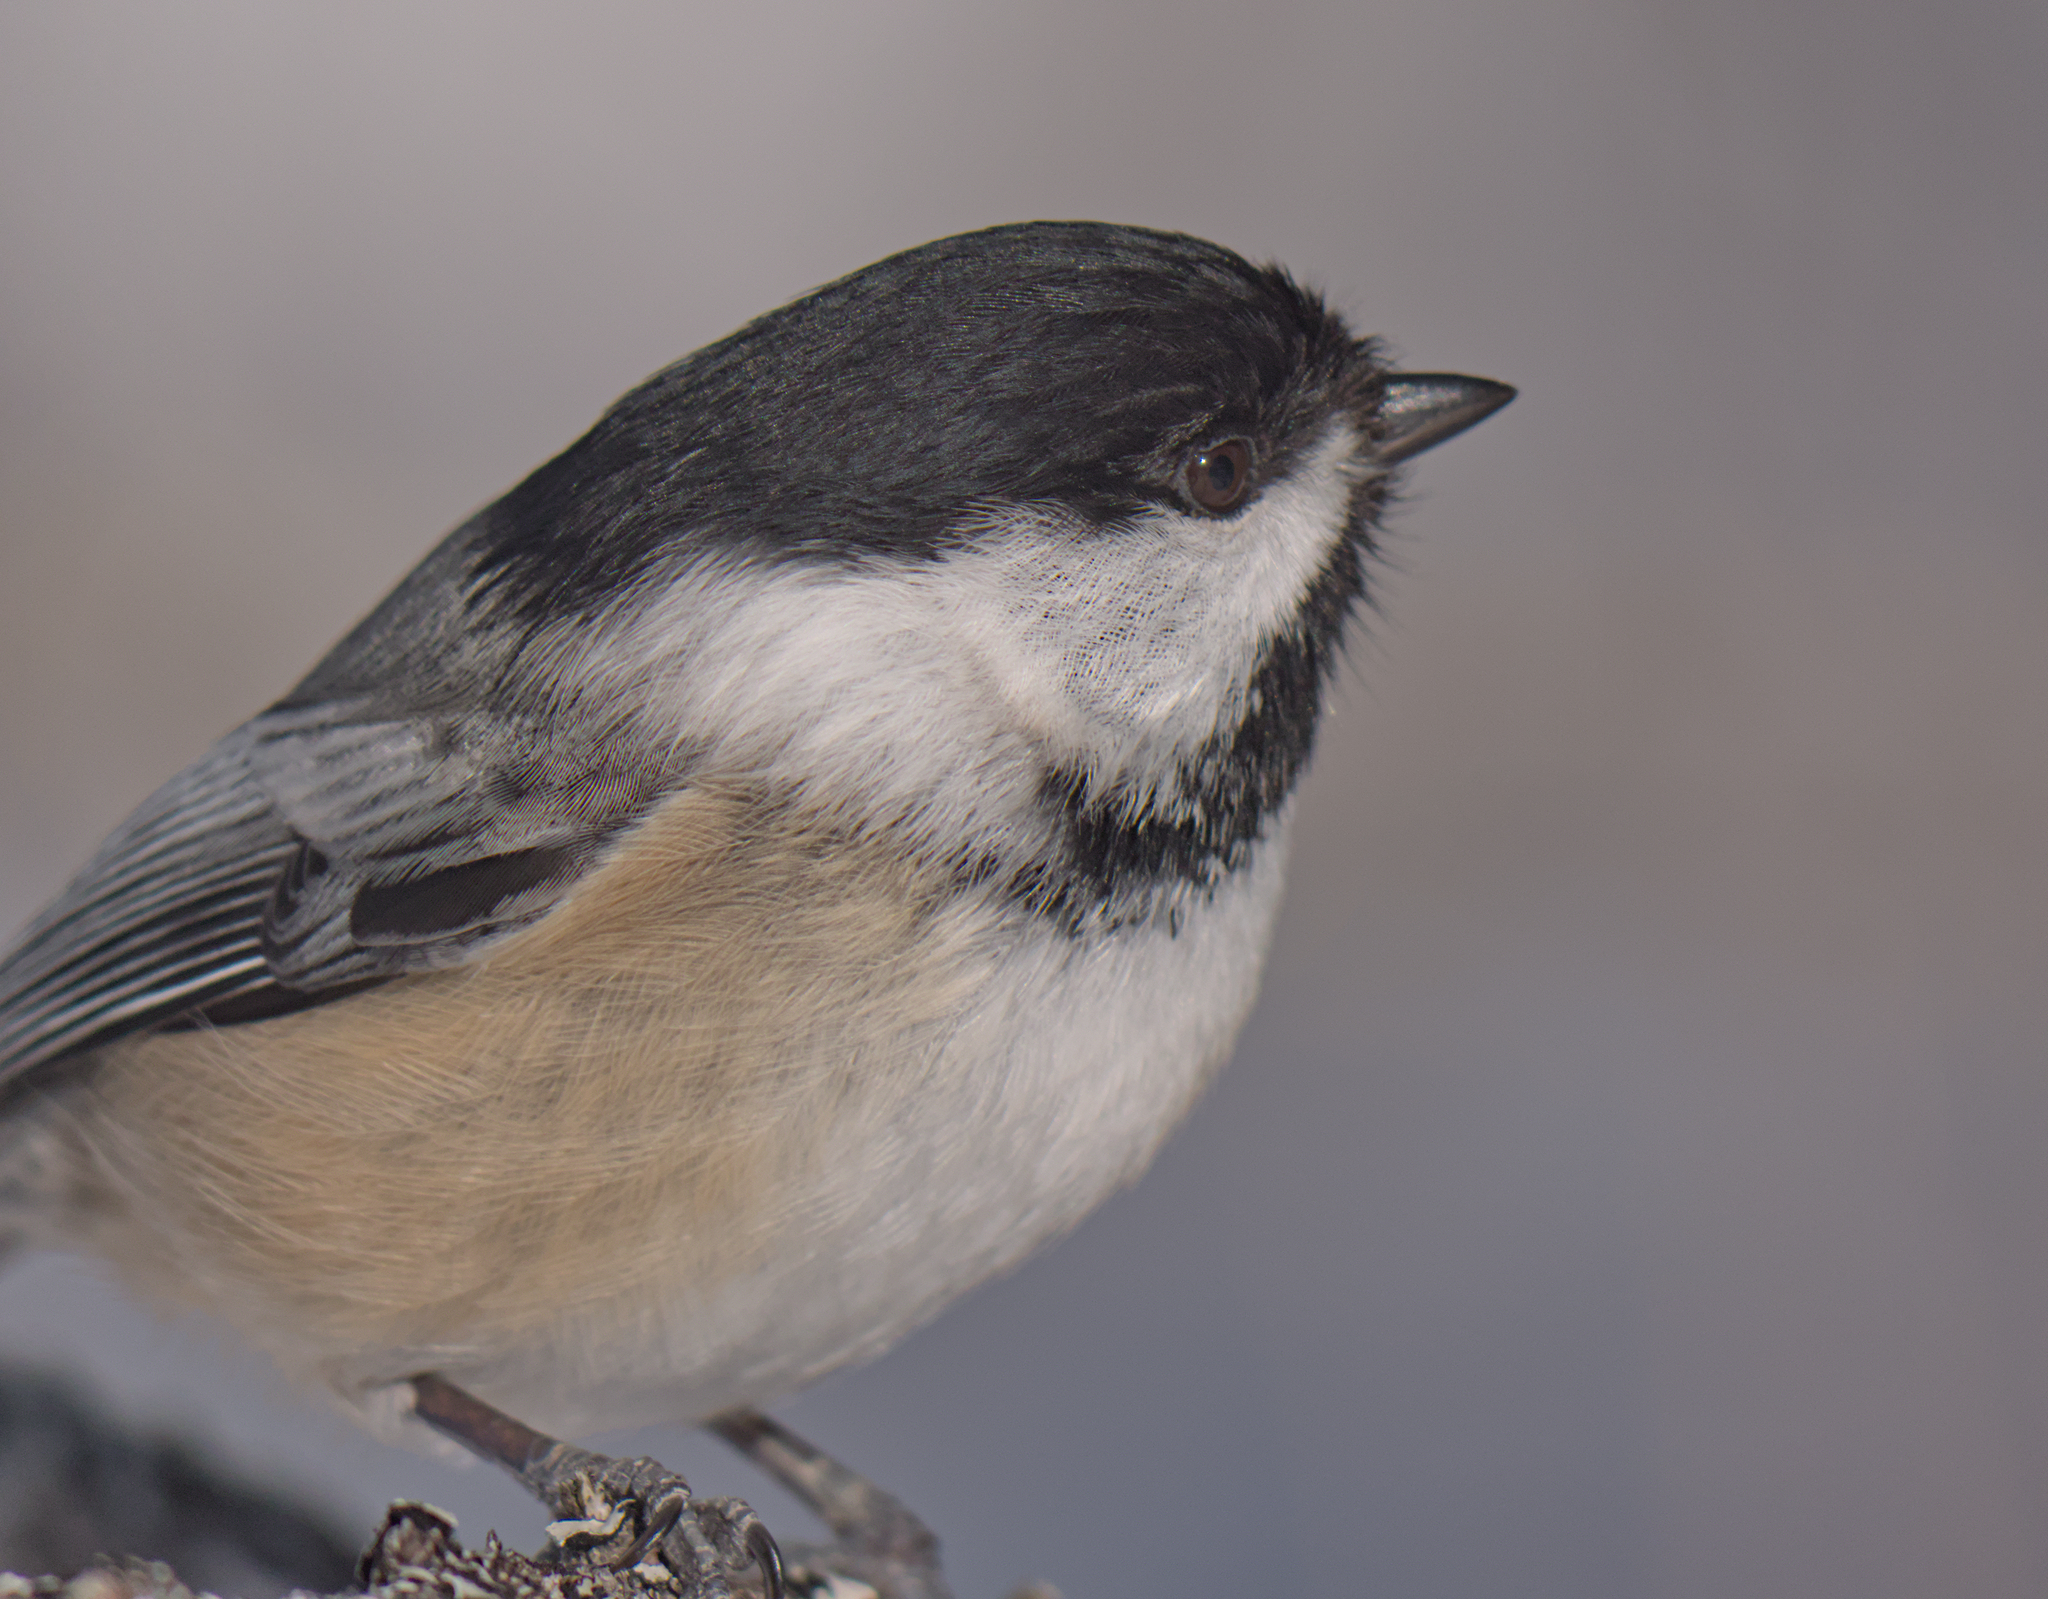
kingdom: Animalia
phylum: Chordata
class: Aves
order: Passeriformes
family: Paridae
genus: Poecile
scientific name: Poecile atricapillus
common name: Black-capped chickadee
